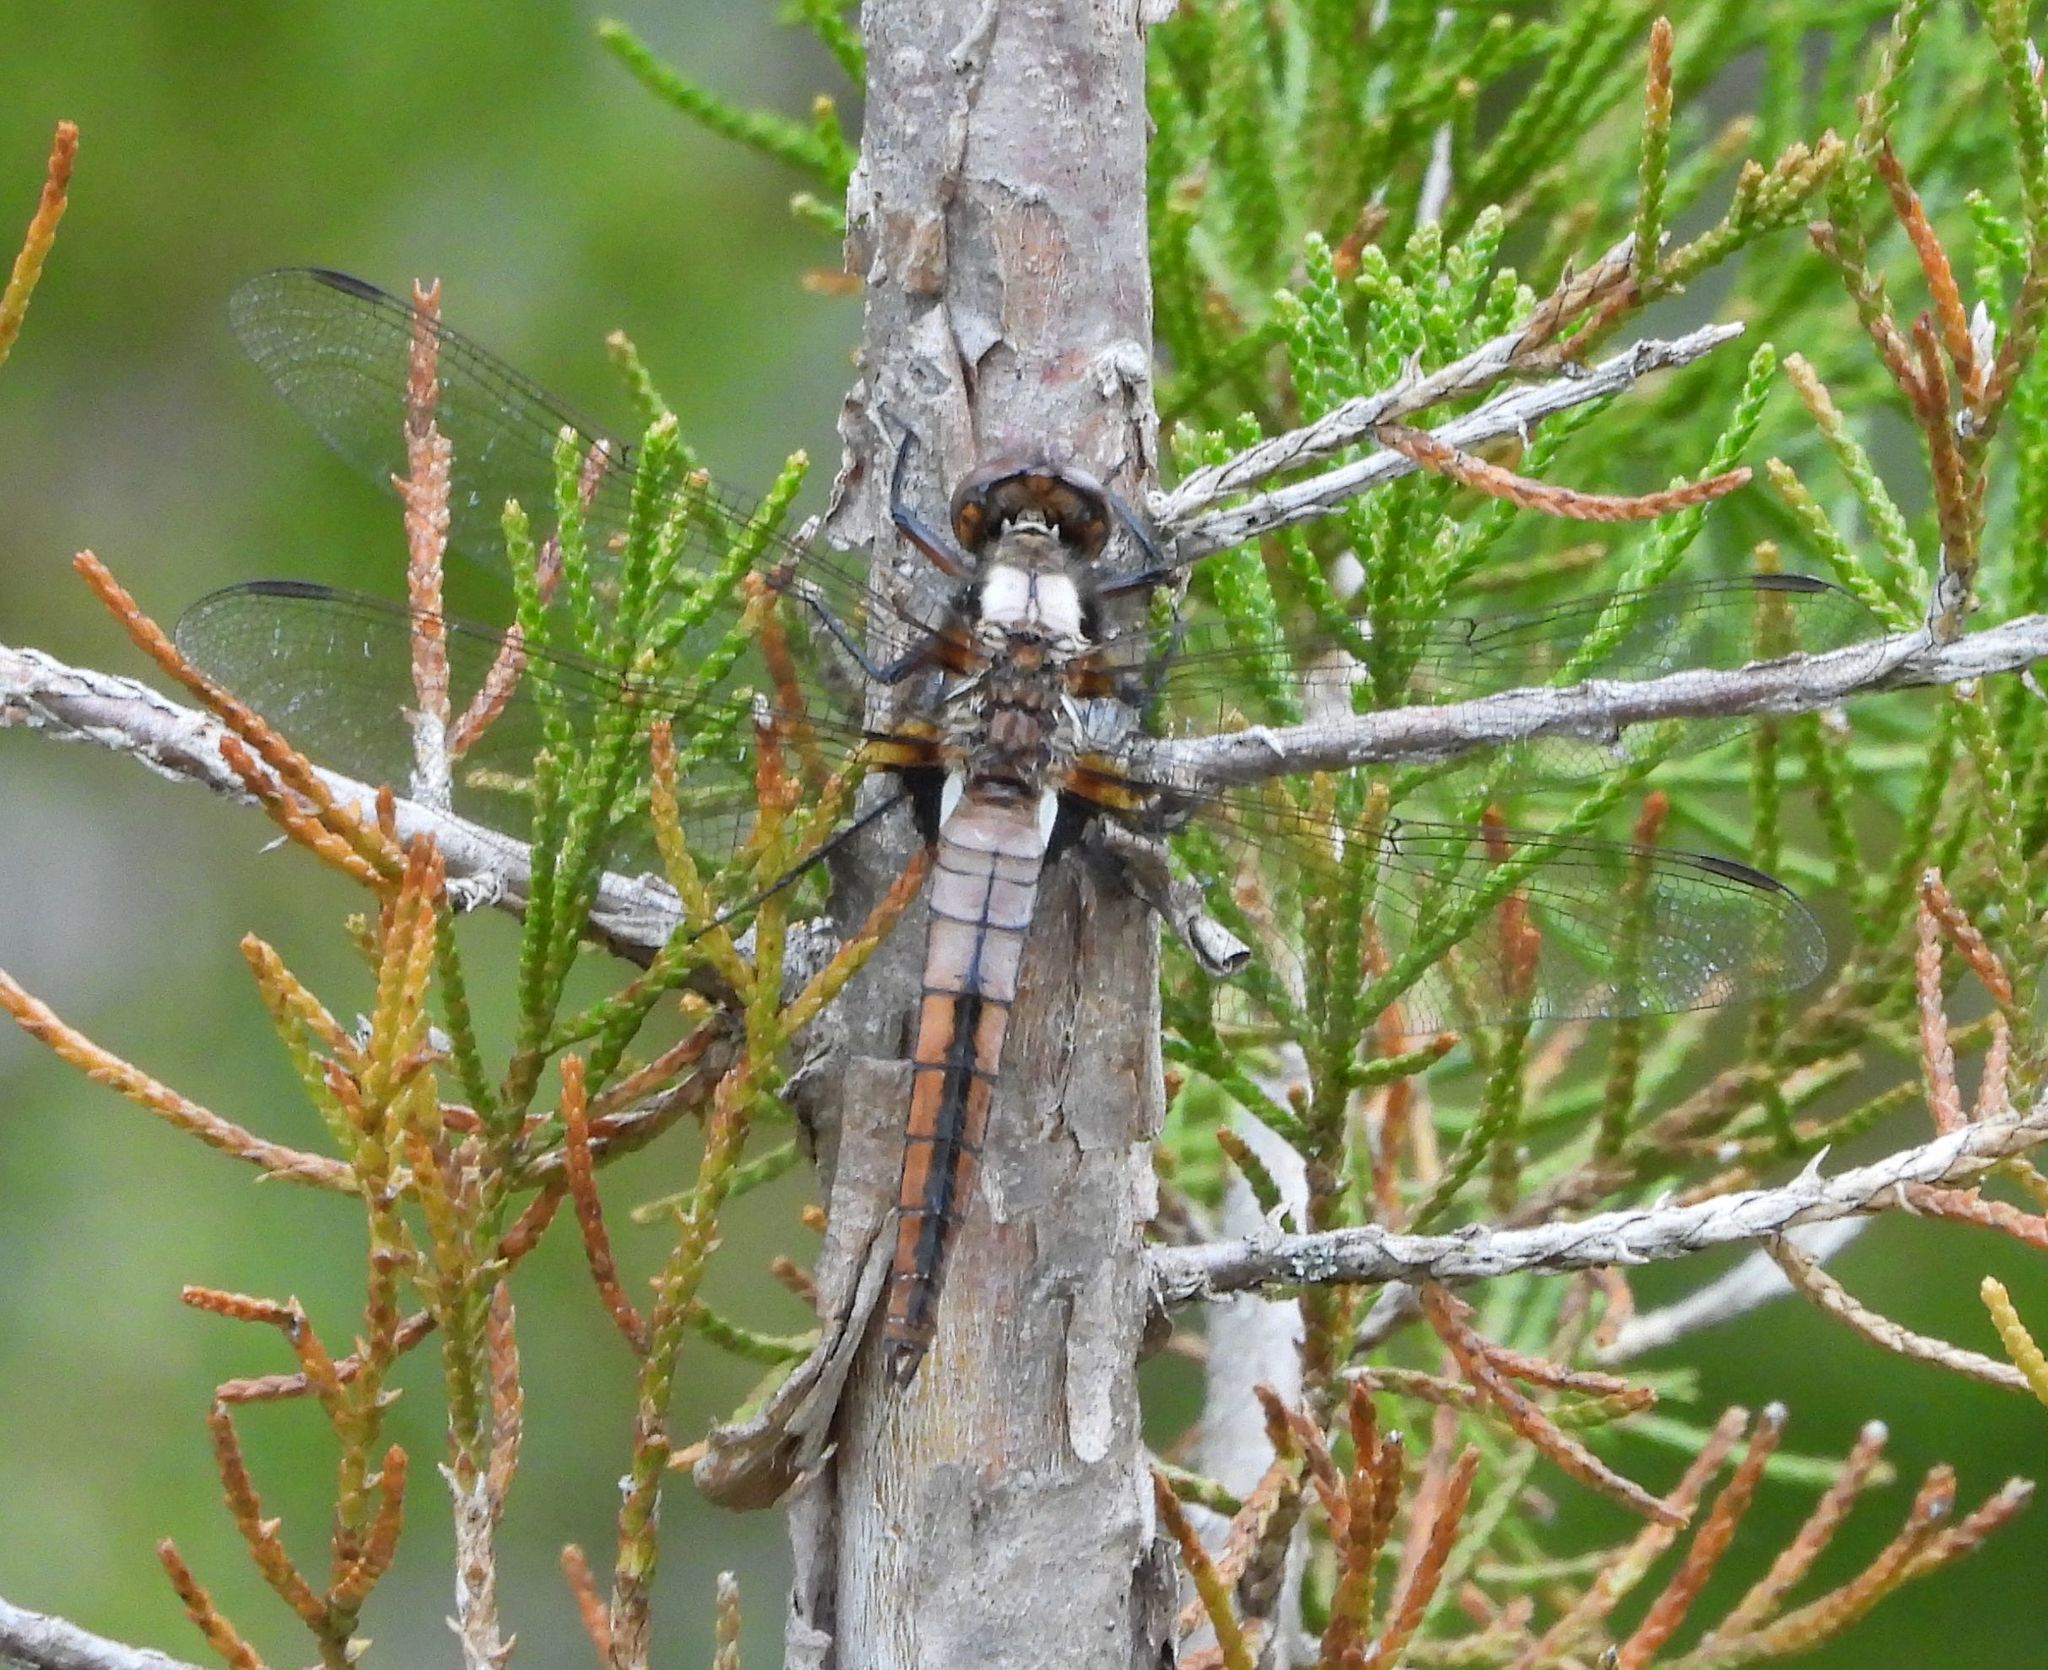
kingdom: Animalia
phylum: Arthropoda
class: Insecta
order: Odonata
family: Libellulidae
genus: Ladona
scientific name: Ladona julia
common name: Chalk-fronted corporal
